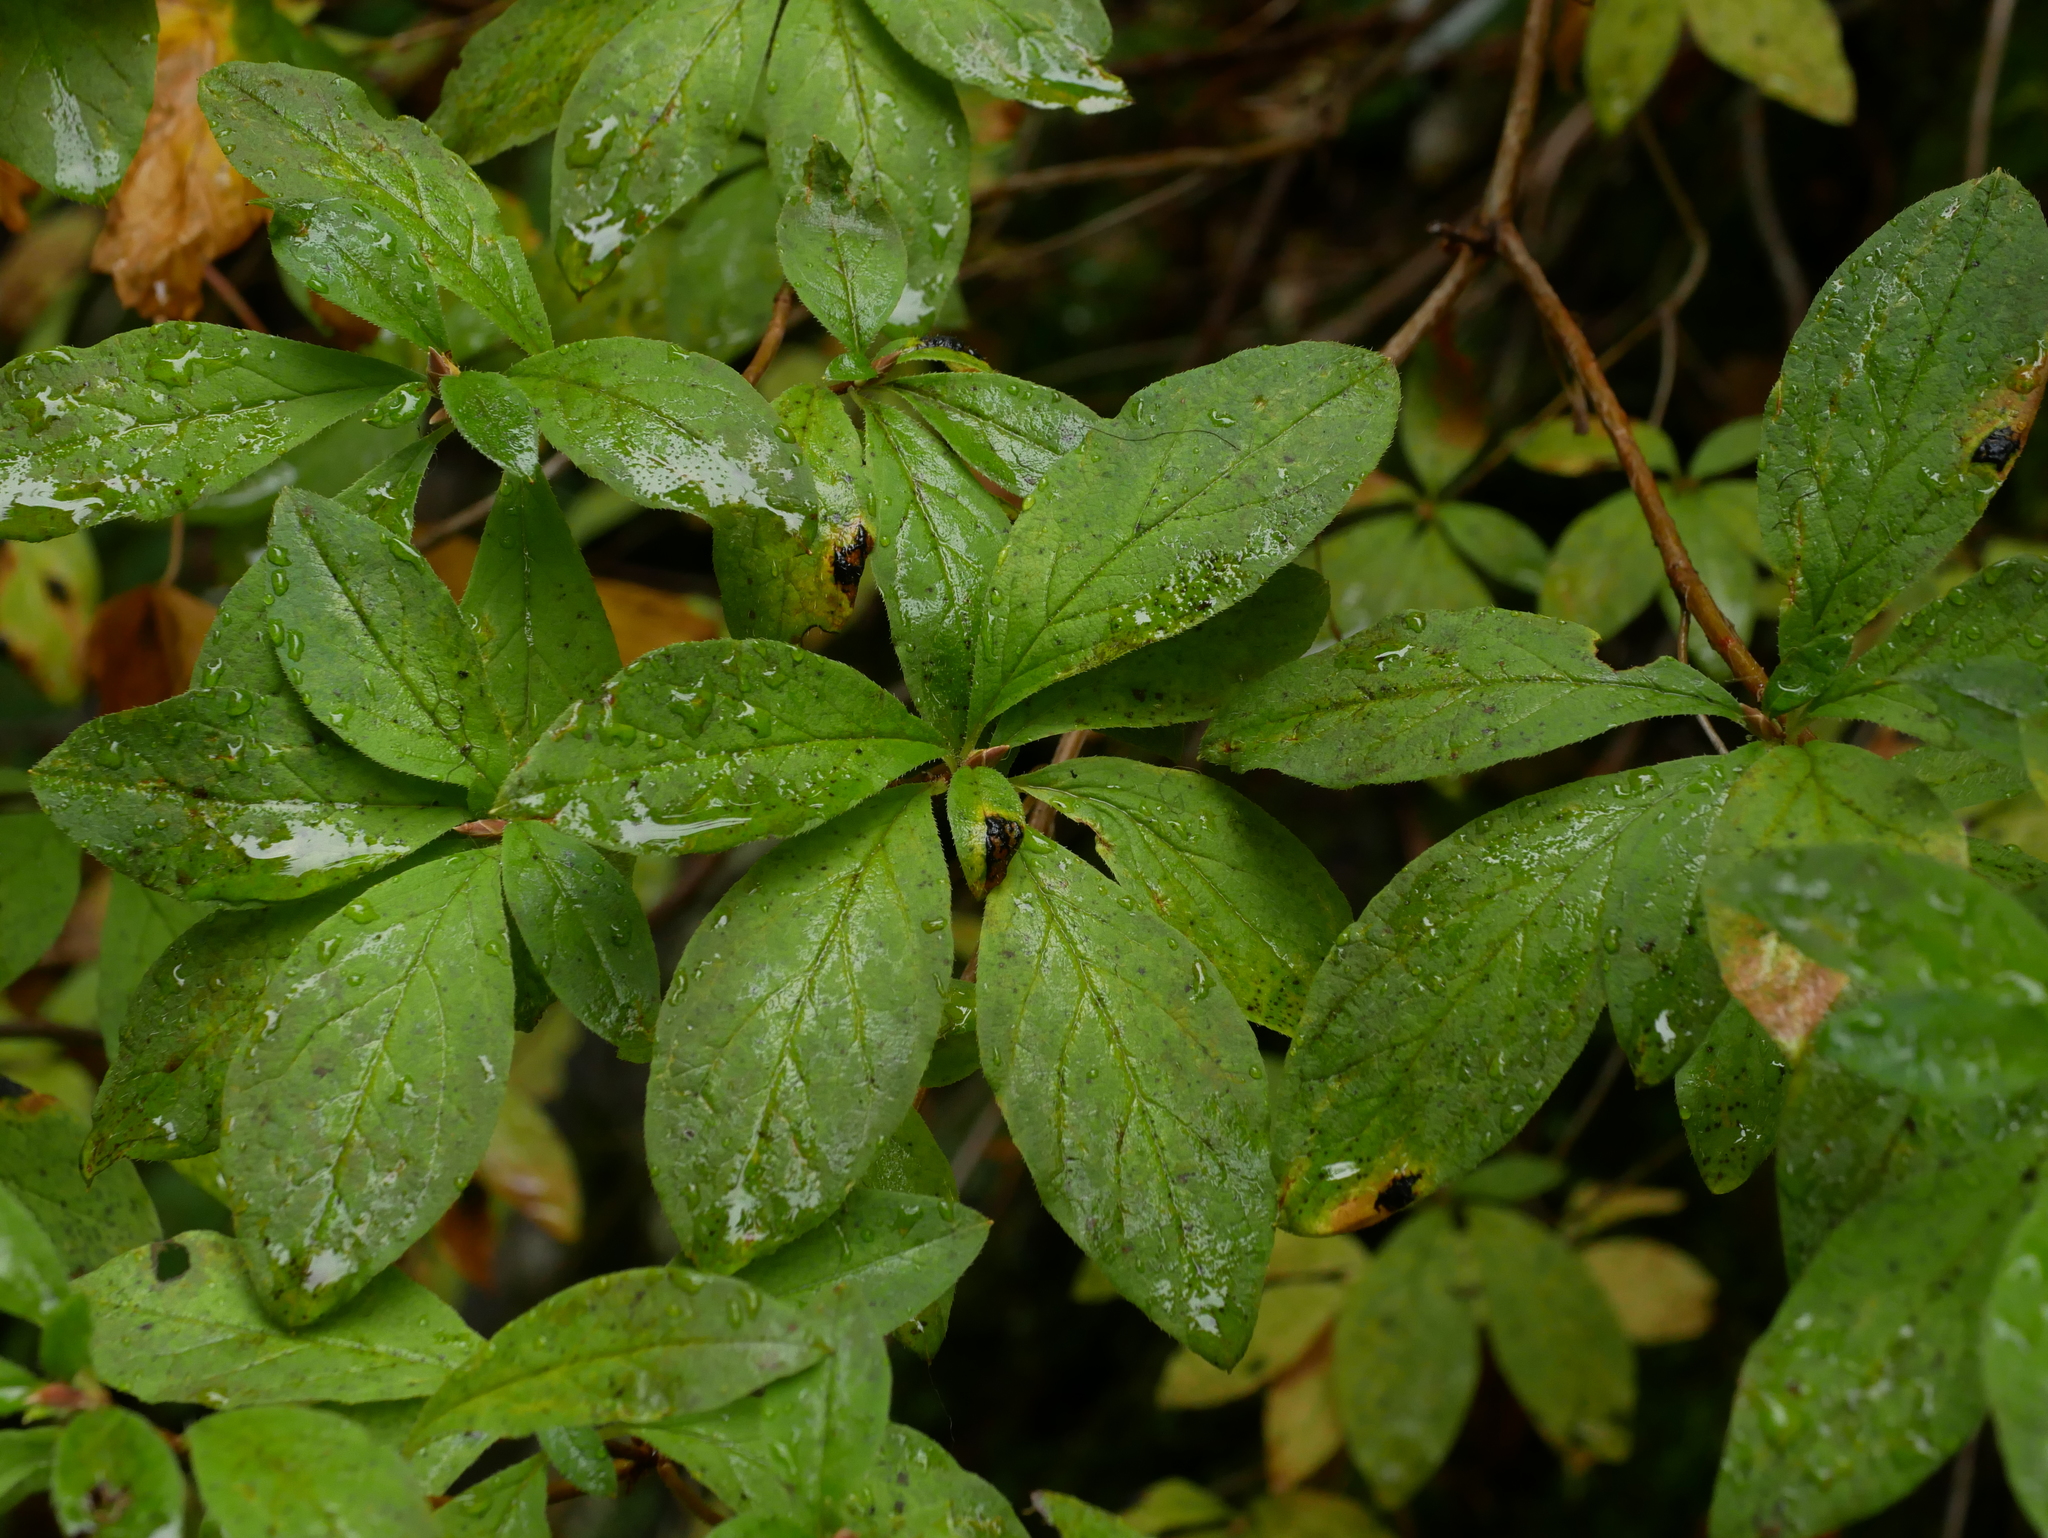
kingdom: Plantae
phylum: Tracheophyta
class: Magnoliopsida
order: Ericales
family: Ericaceae
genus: Rhododendron
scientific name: Rhododendron menziesii
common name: Pacific menziesia
